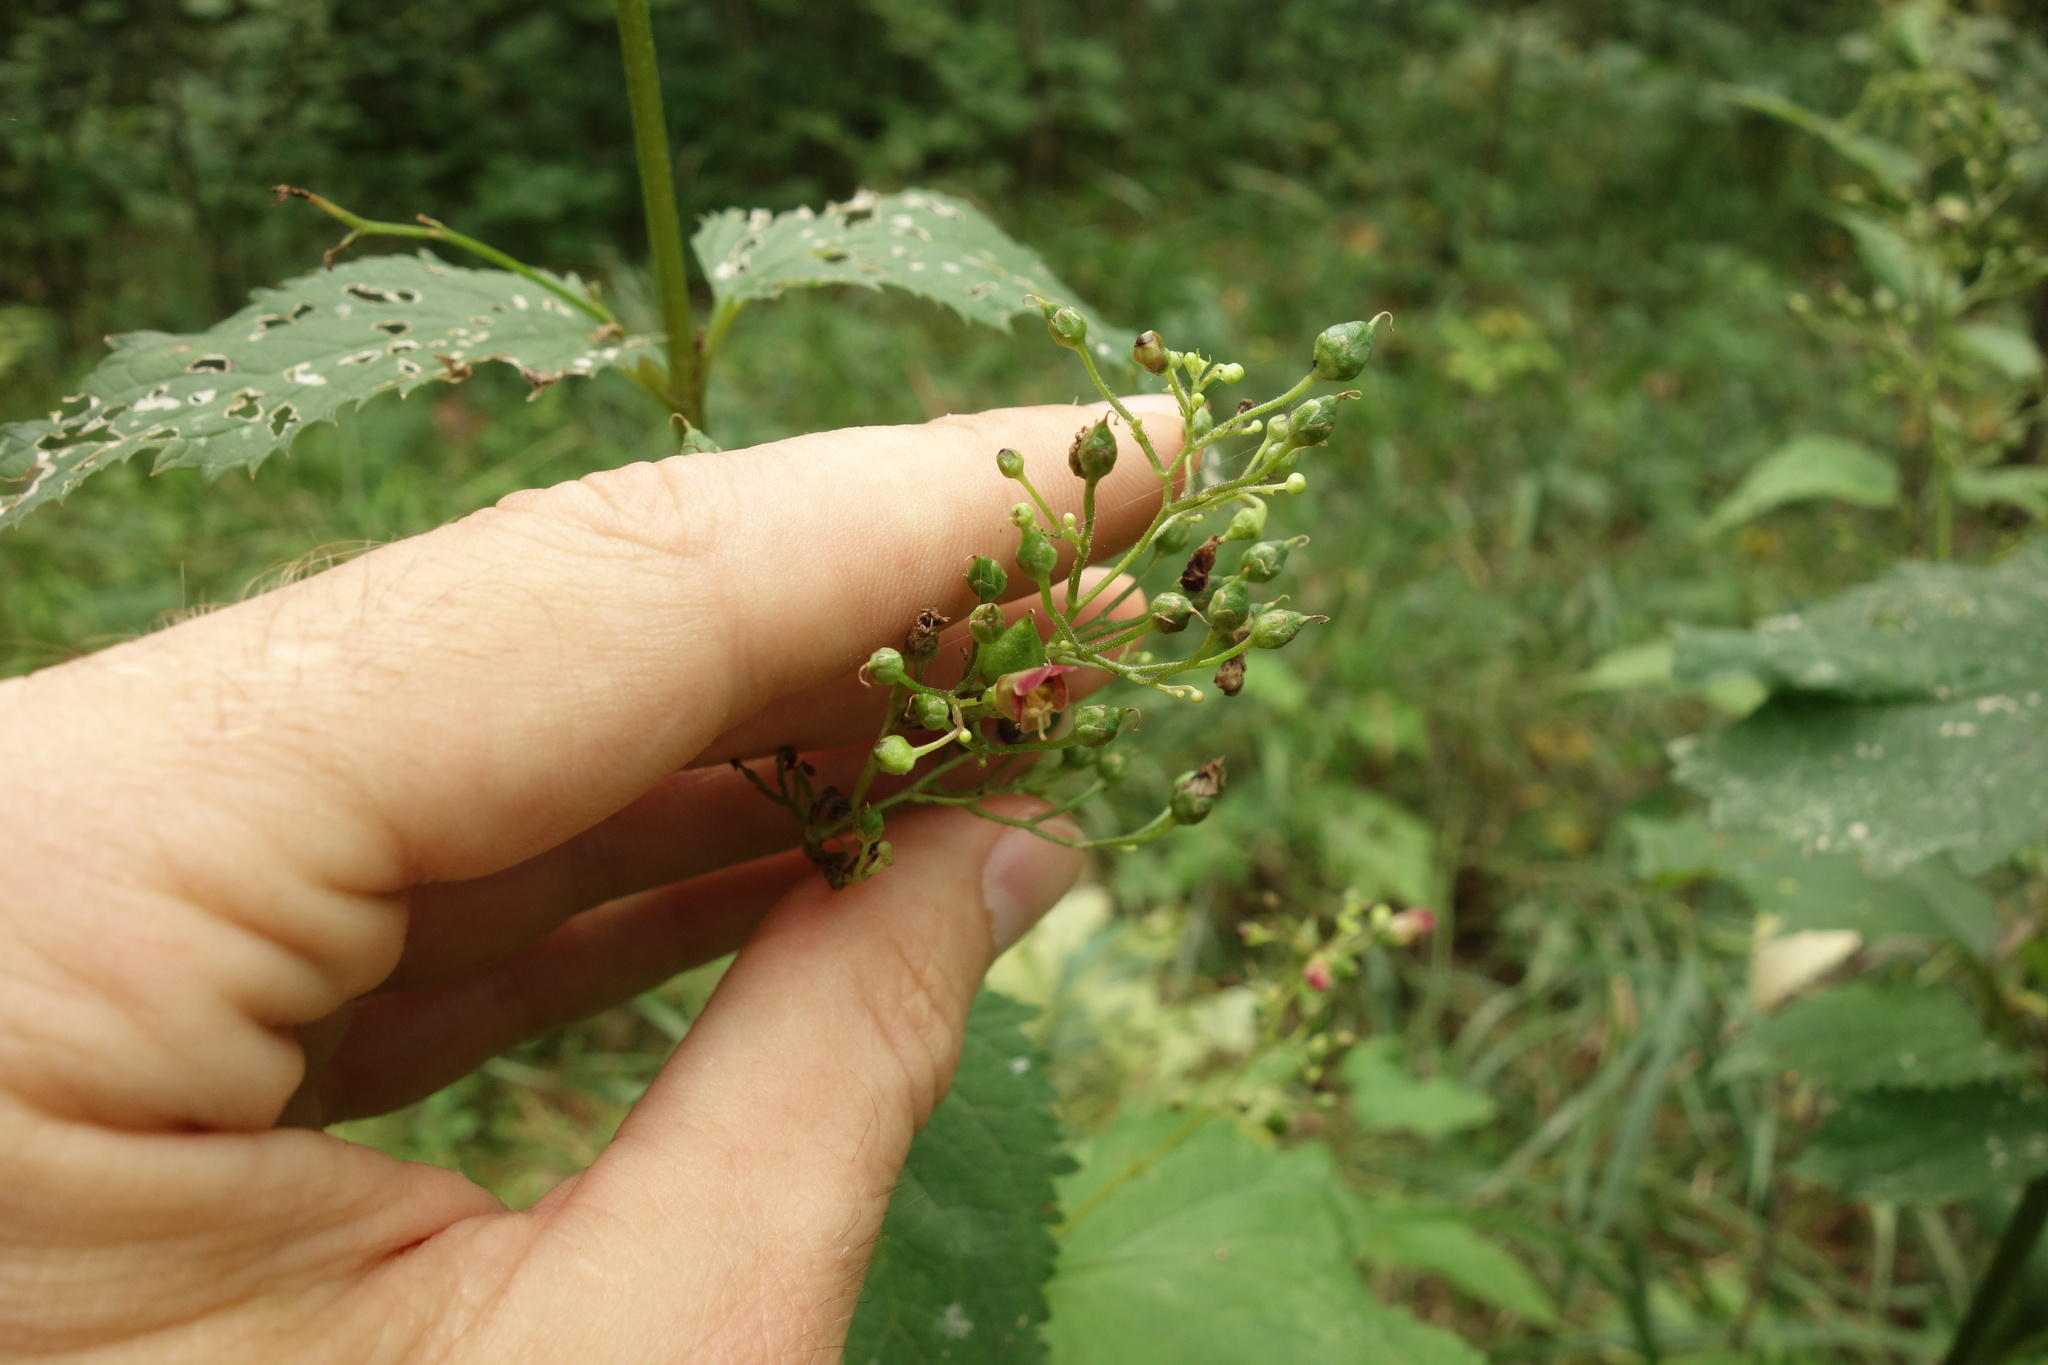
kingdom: Plantae
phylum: Tracheophyta
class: Magnoliopsida
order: Lamiales
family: Scrophulariaceae
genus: Scrophularia
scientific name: Scrophularia nodosa
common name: Common figwort
